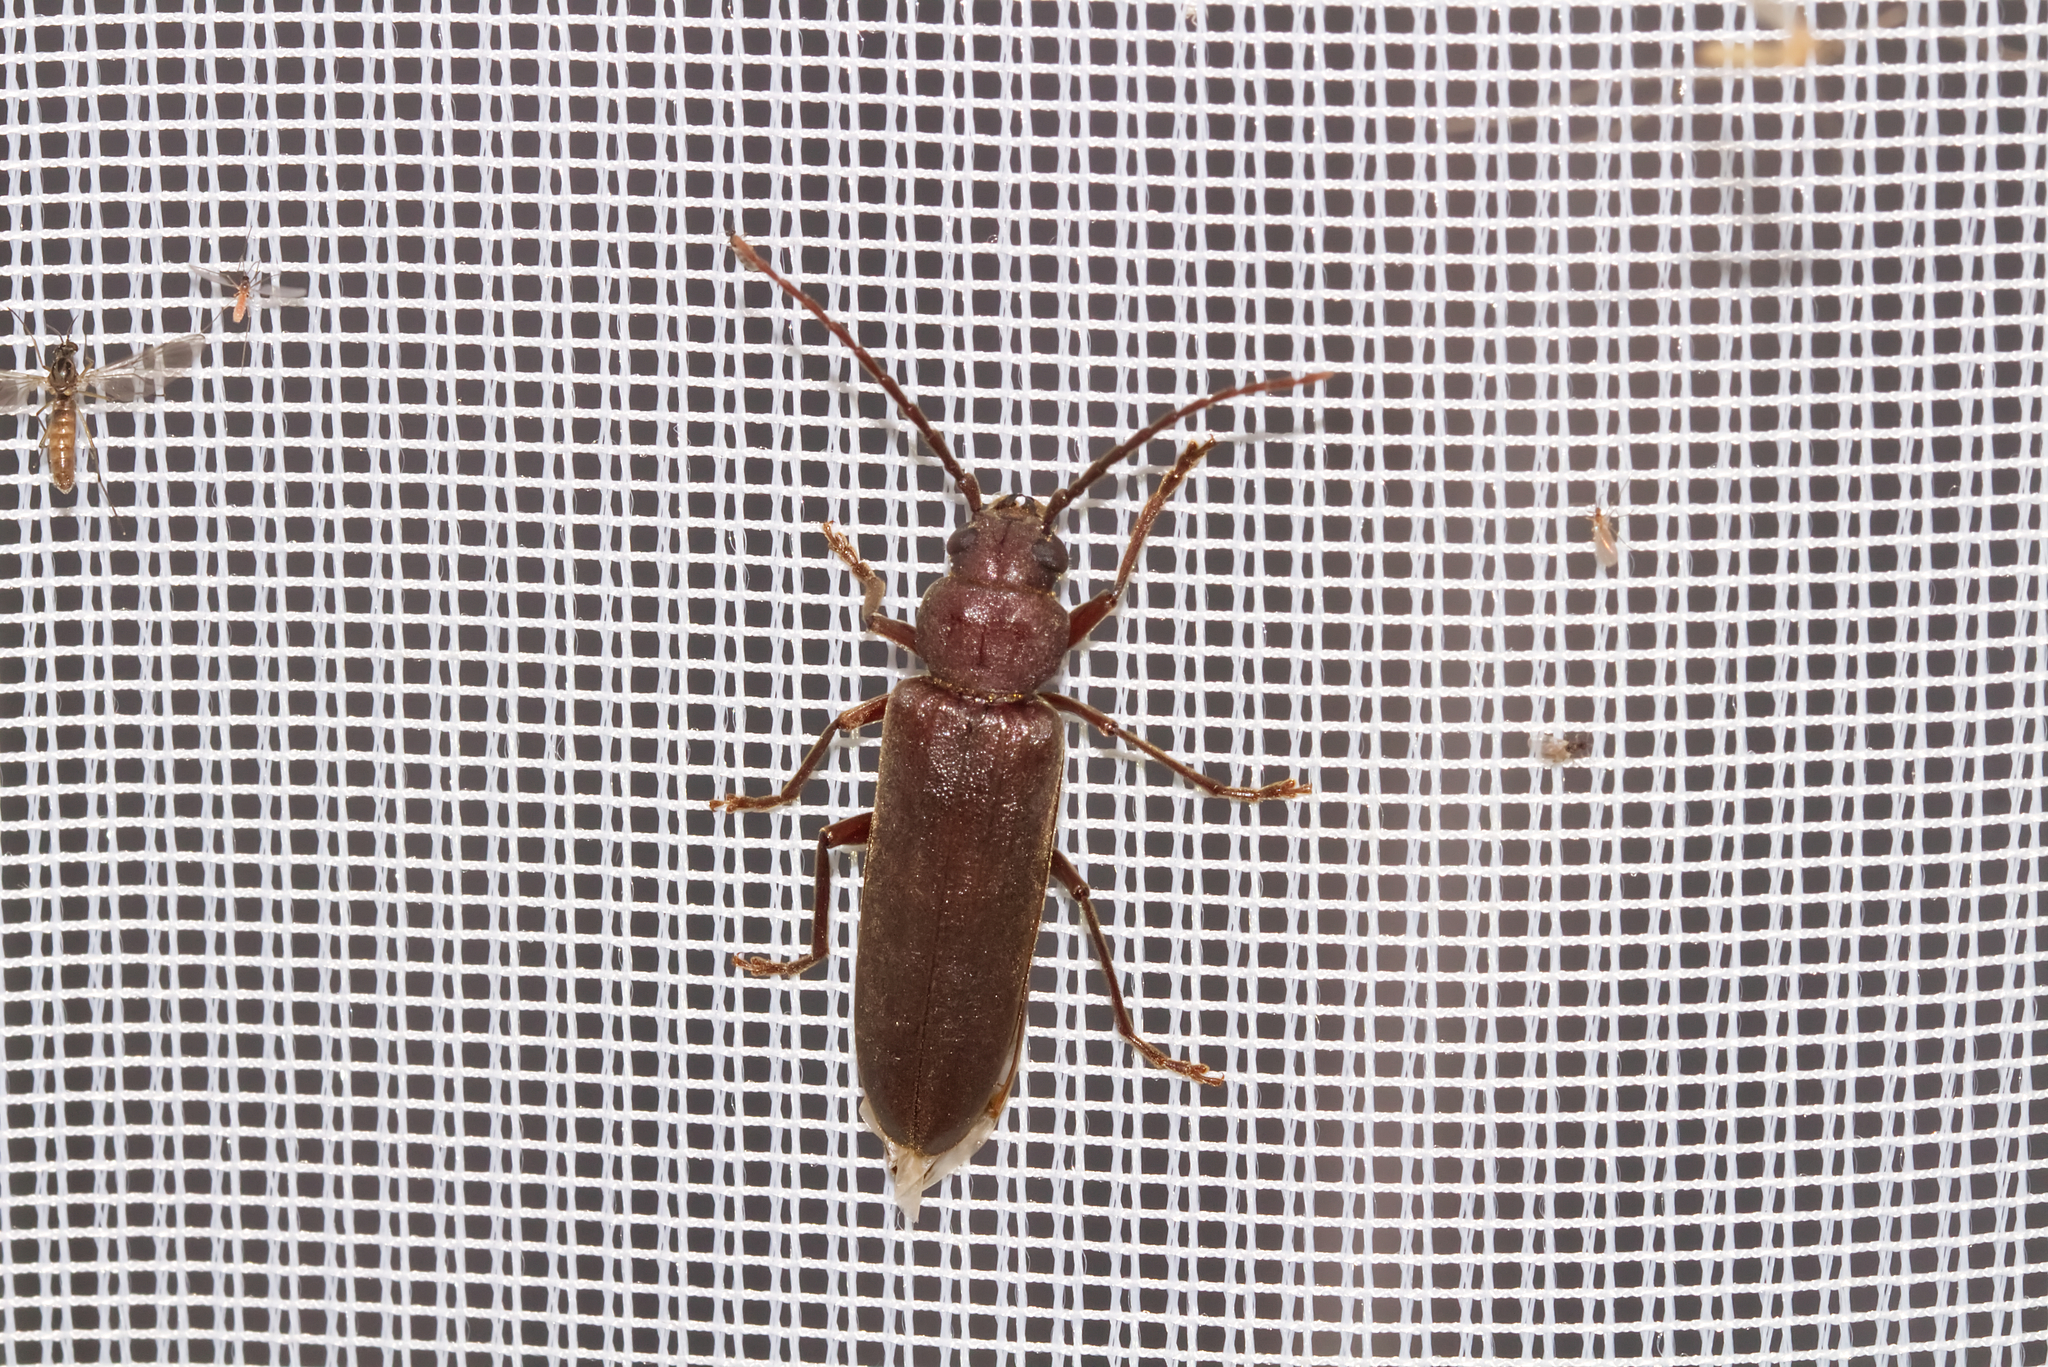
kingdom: Animalia
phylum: Arthropoda
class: Insecta
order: Coleoptera
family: Cerambycidae
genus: Arhopalus
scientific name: Arhopalus rusticus
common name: Rust pine borer
